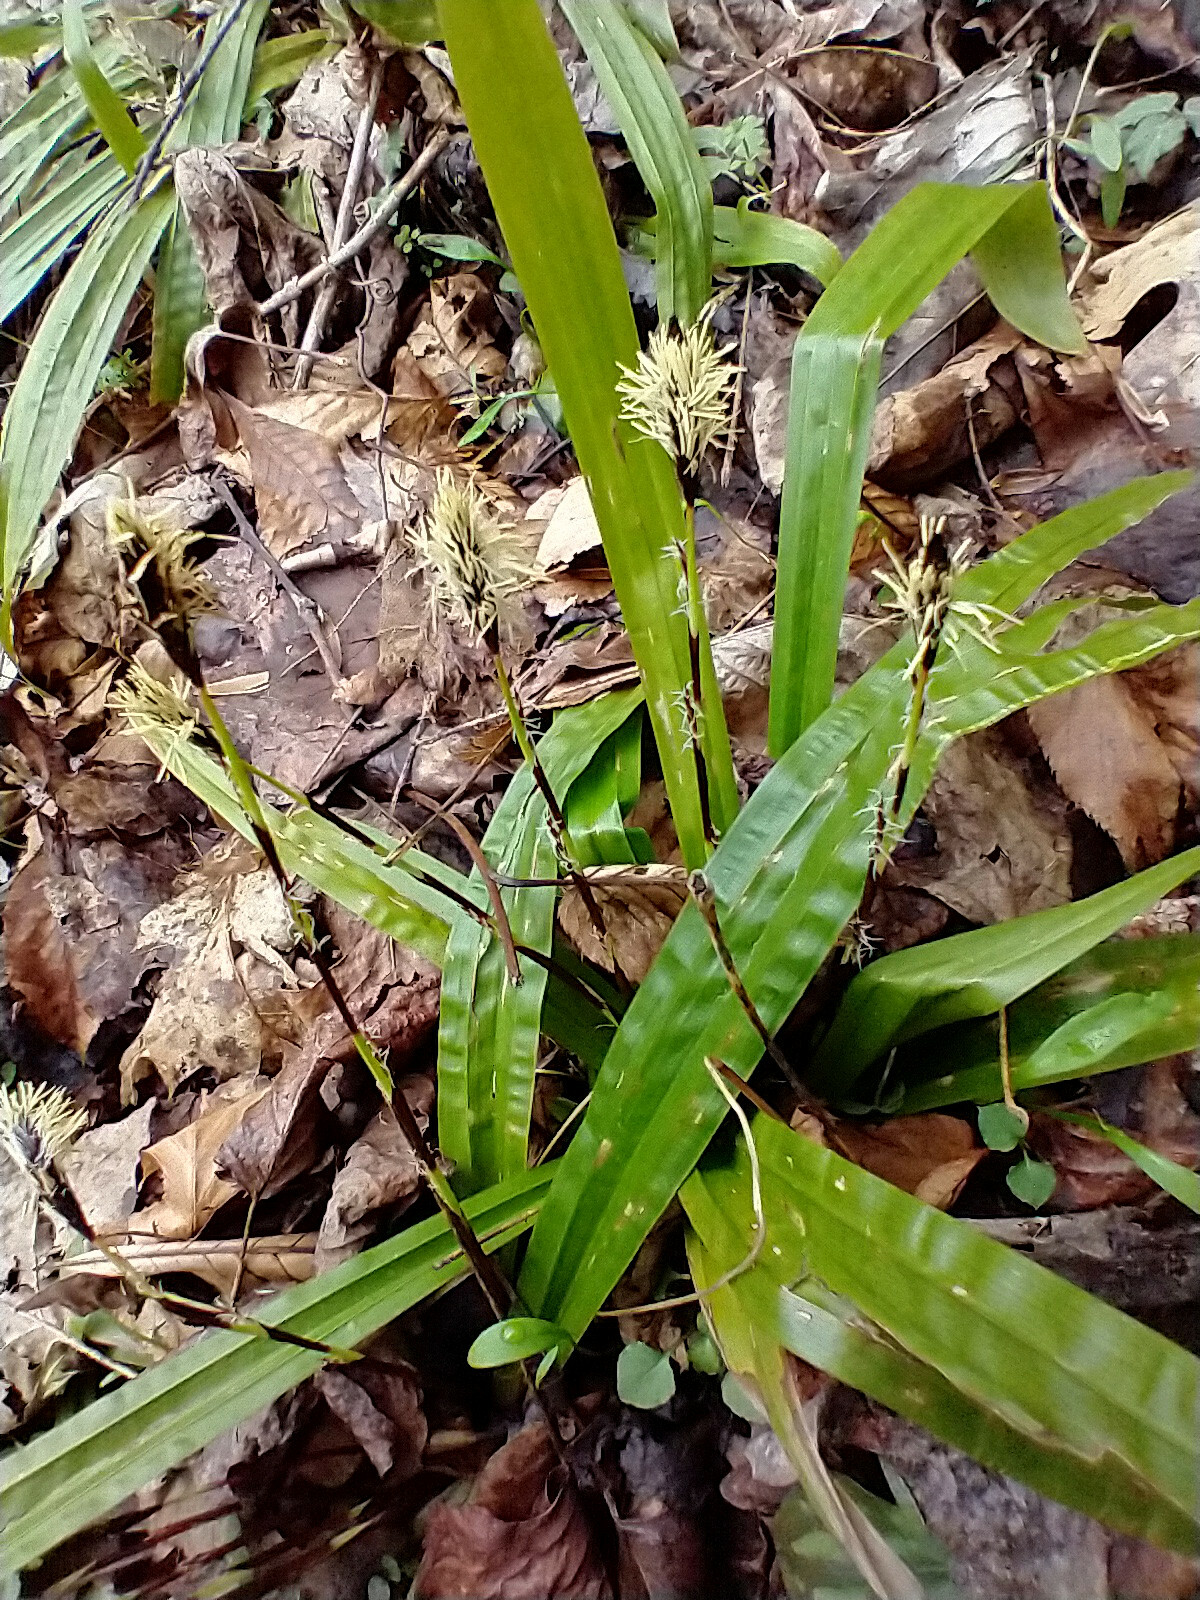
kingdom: Plantae
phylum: Tracheophyta
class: Liliopsida
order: Poales
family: Cyperaceae
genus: Carex
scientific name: Carex plantaginea
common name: Plantain-leaved sedge
